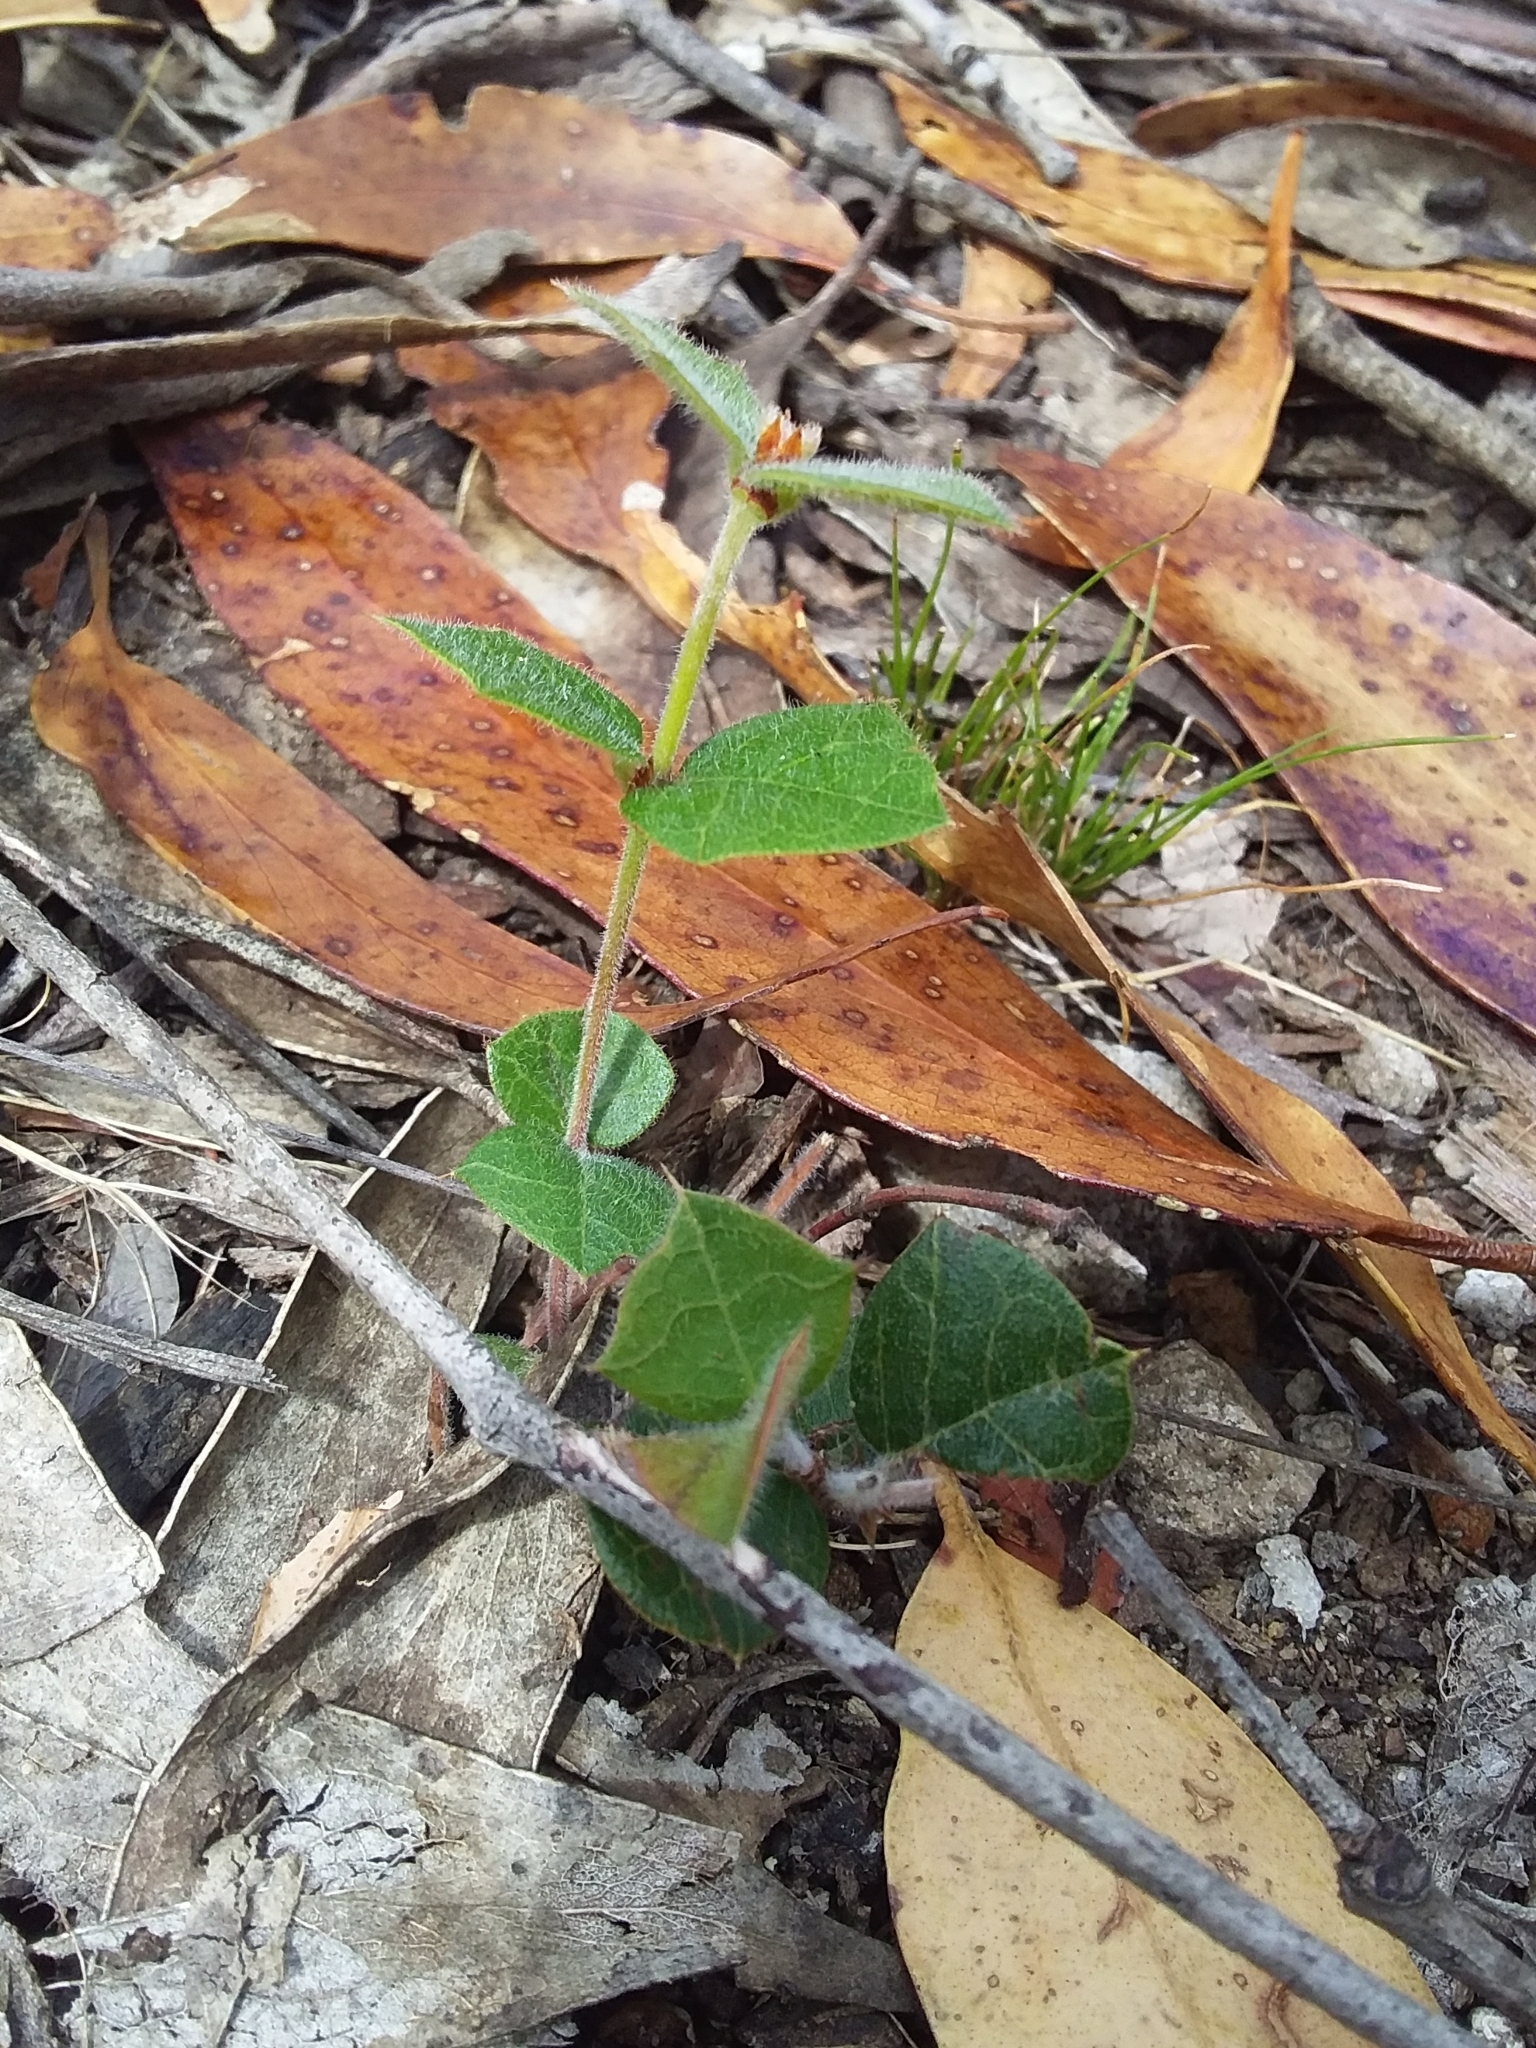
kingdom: Plantae
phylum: Tracheophyta
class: Magnoliopsida
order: Fabales
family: Fabaceae
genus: Platylobium
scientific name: Platylobium obtusangulum
